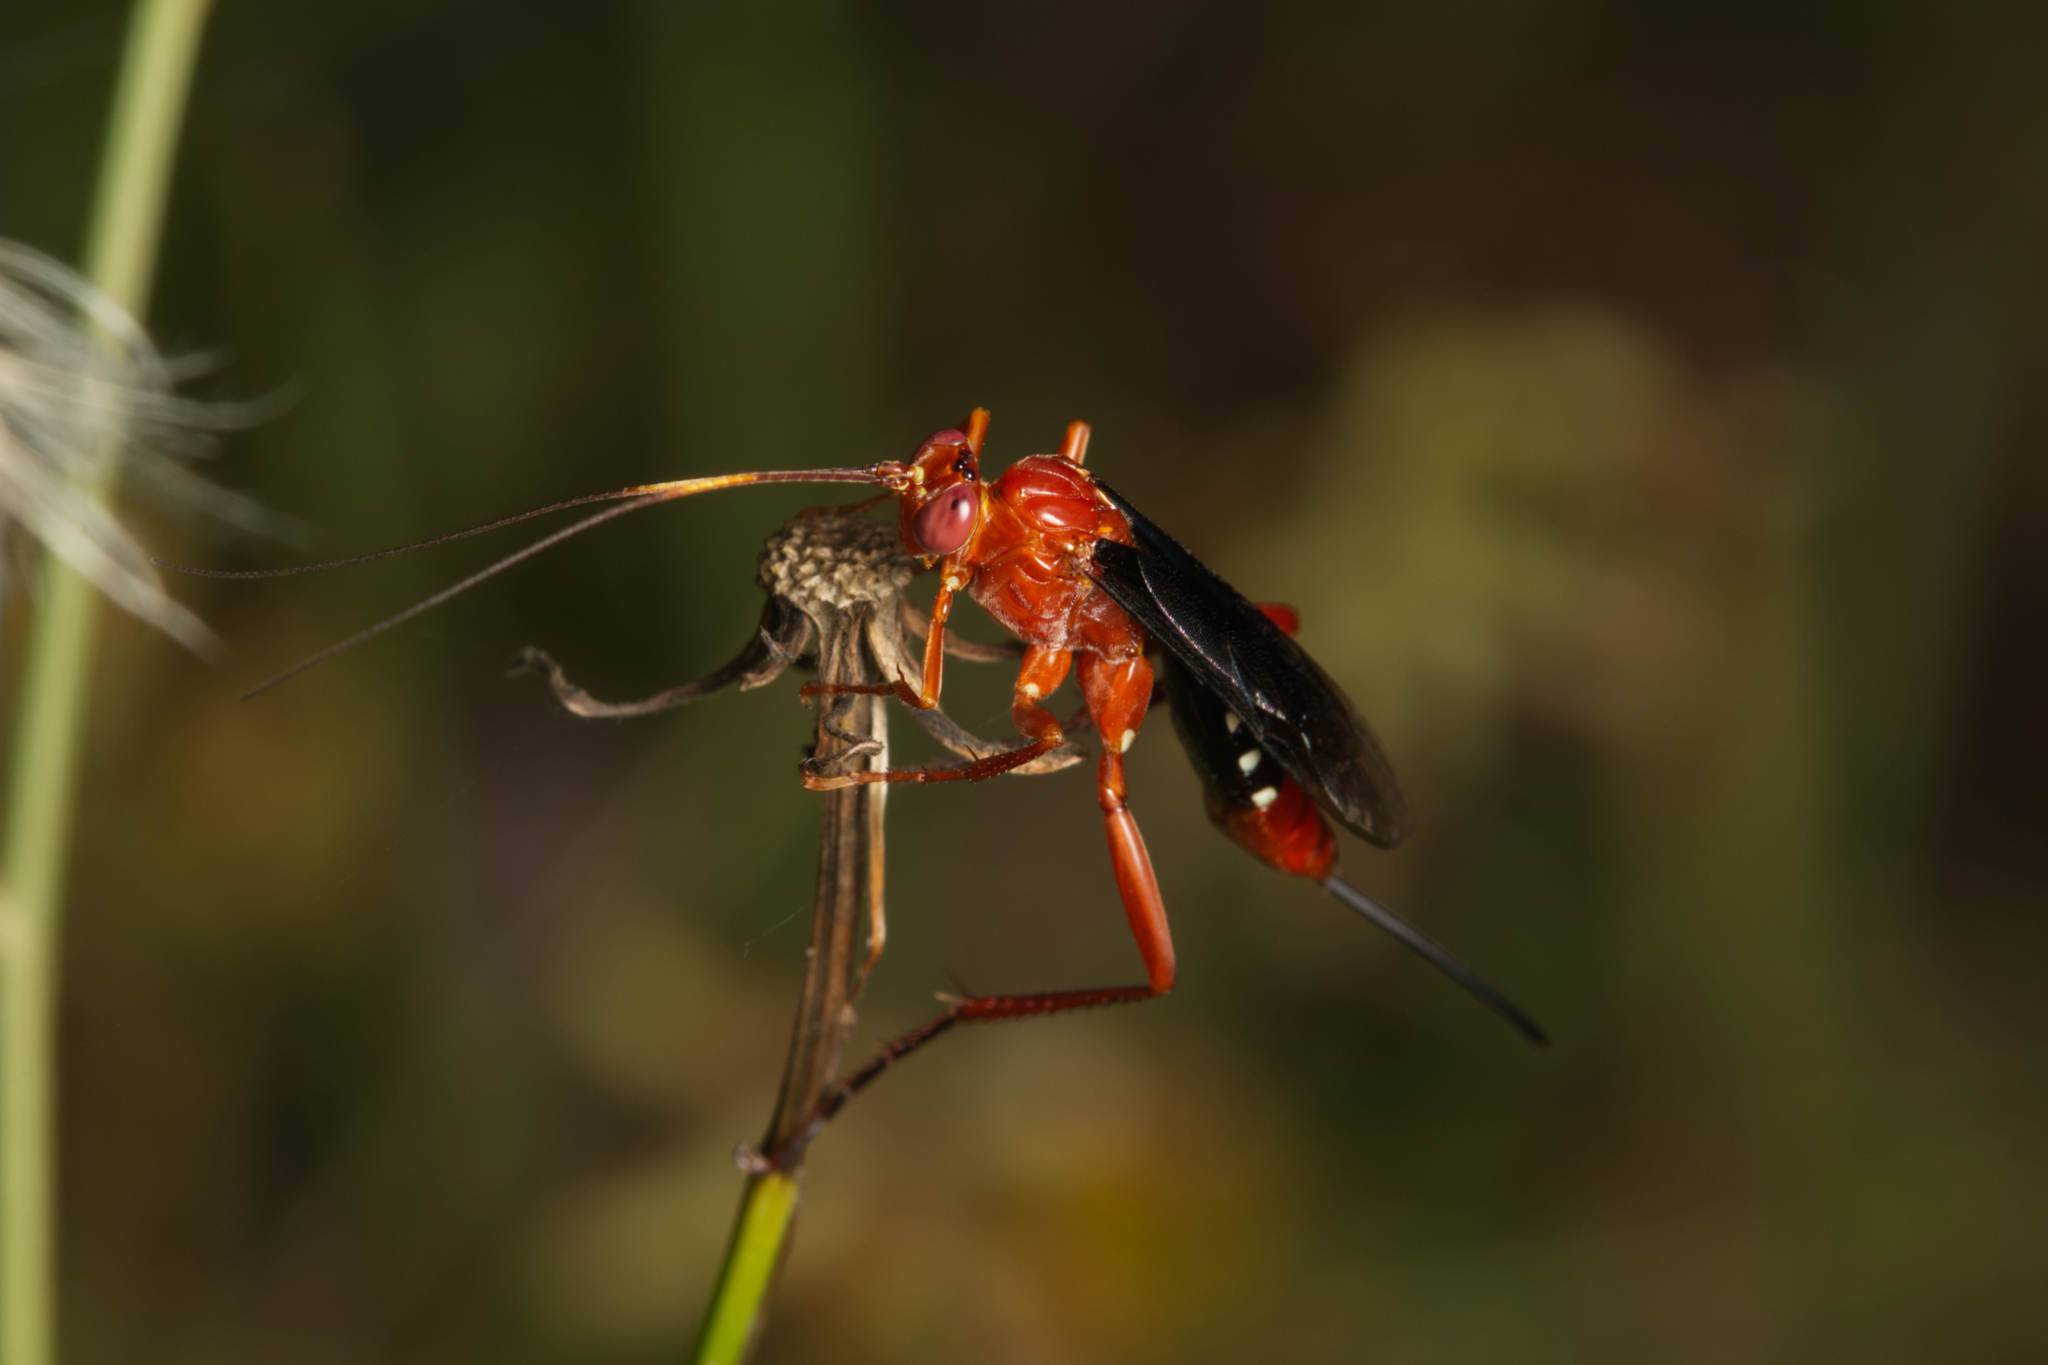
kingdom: Animalia
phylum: Arthropoda
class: Insecta
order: Hymenoptera
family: Ichneumonidae
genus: Lissopimpla
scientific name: Lissopimpla excelsa
